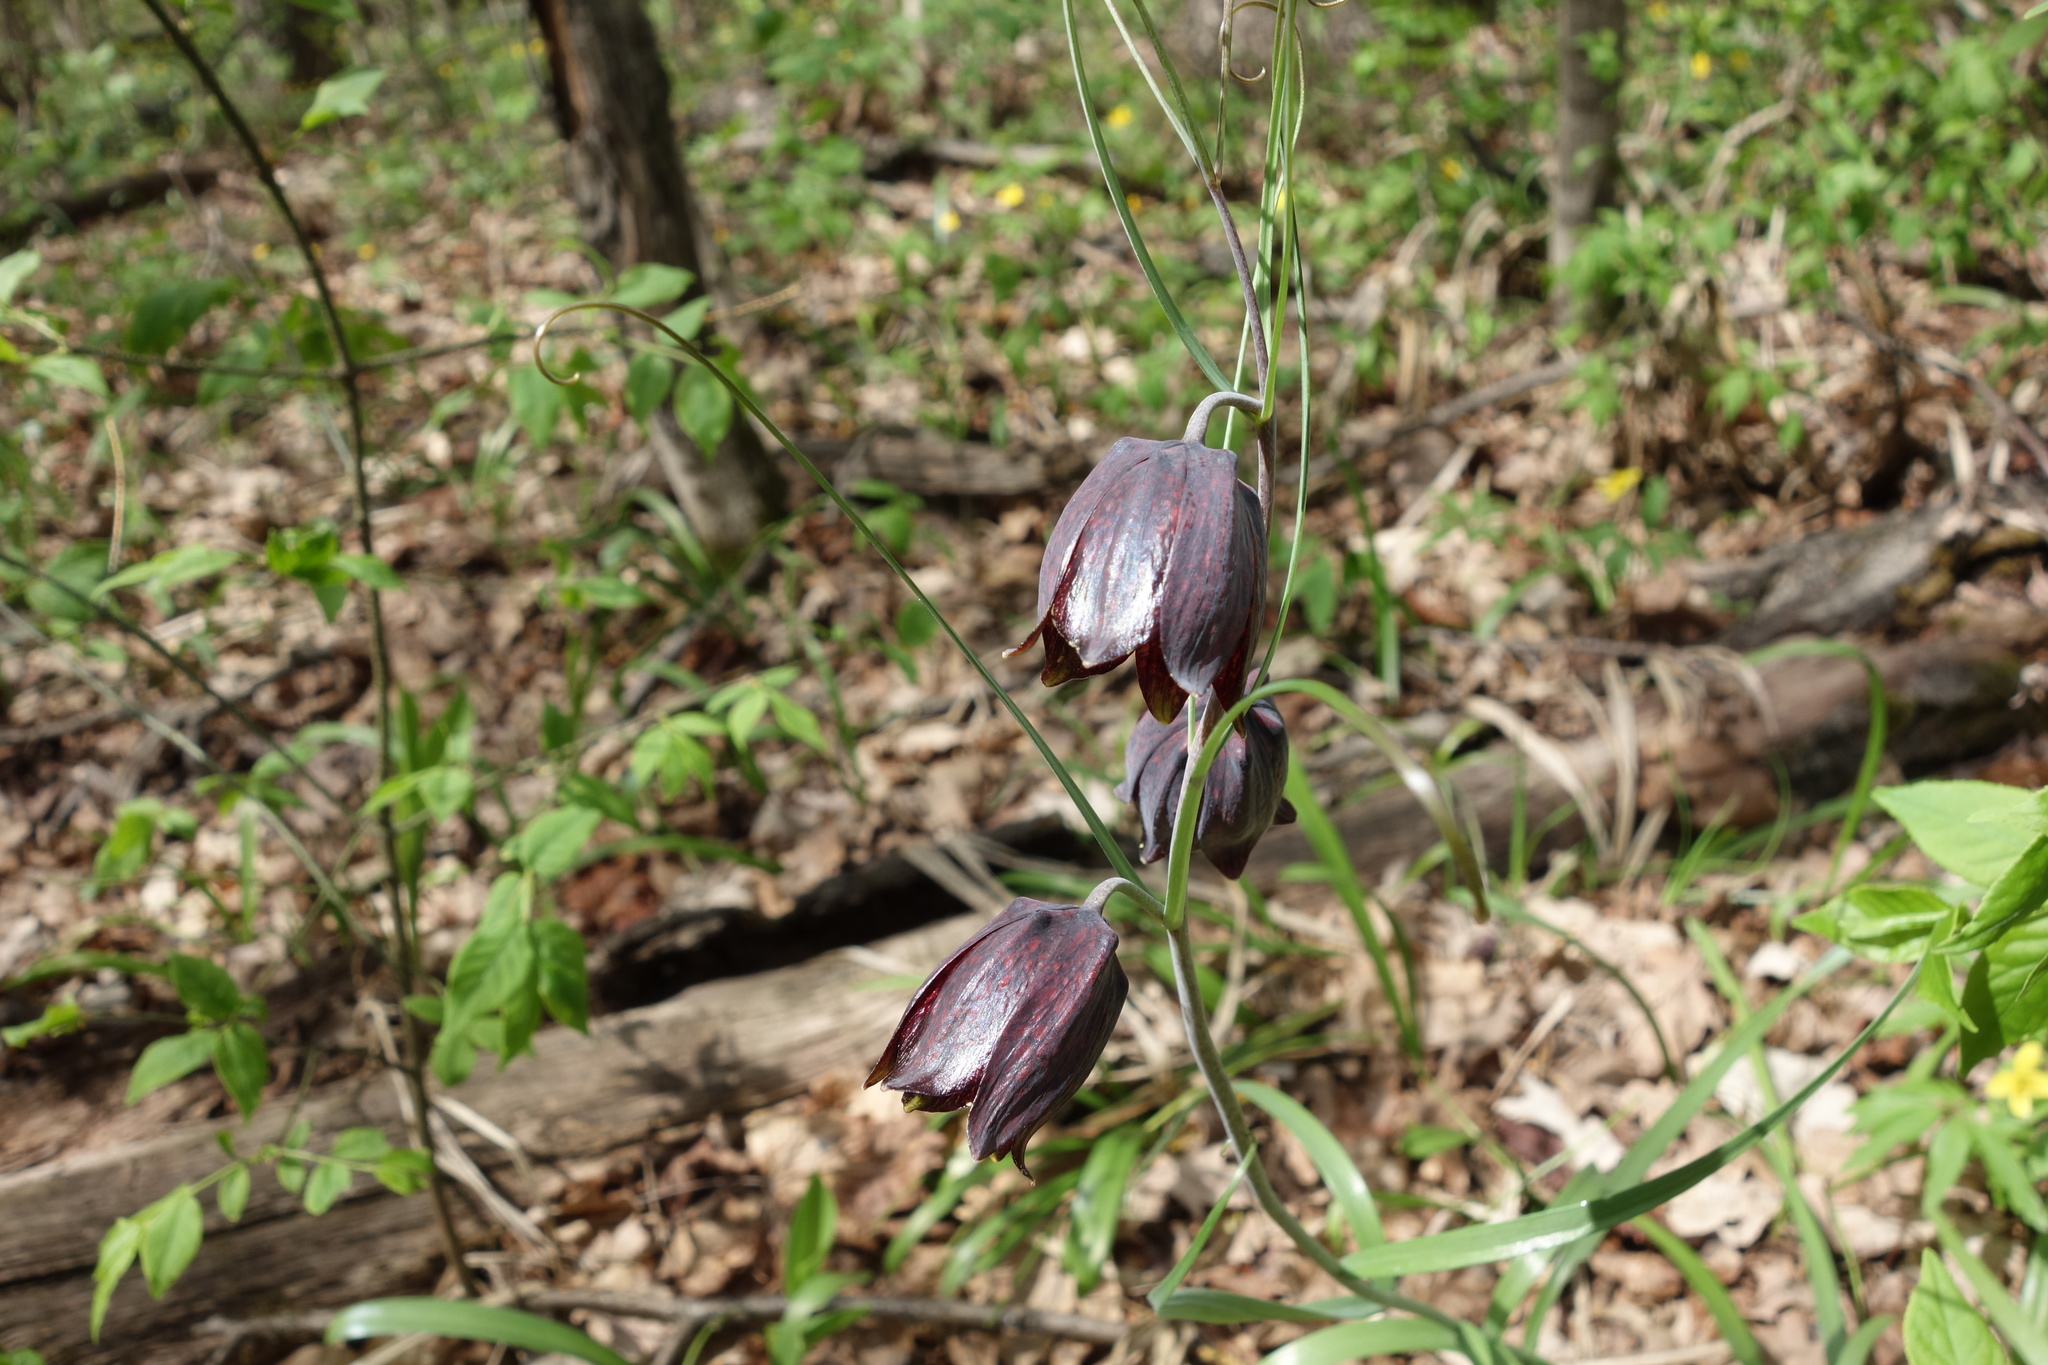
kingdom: Plantae
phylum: Tracheophyta
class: Liliopsida
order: Liliales
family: Liliaceae
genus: Fritillaria
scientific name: Fritillaria ruthenica
